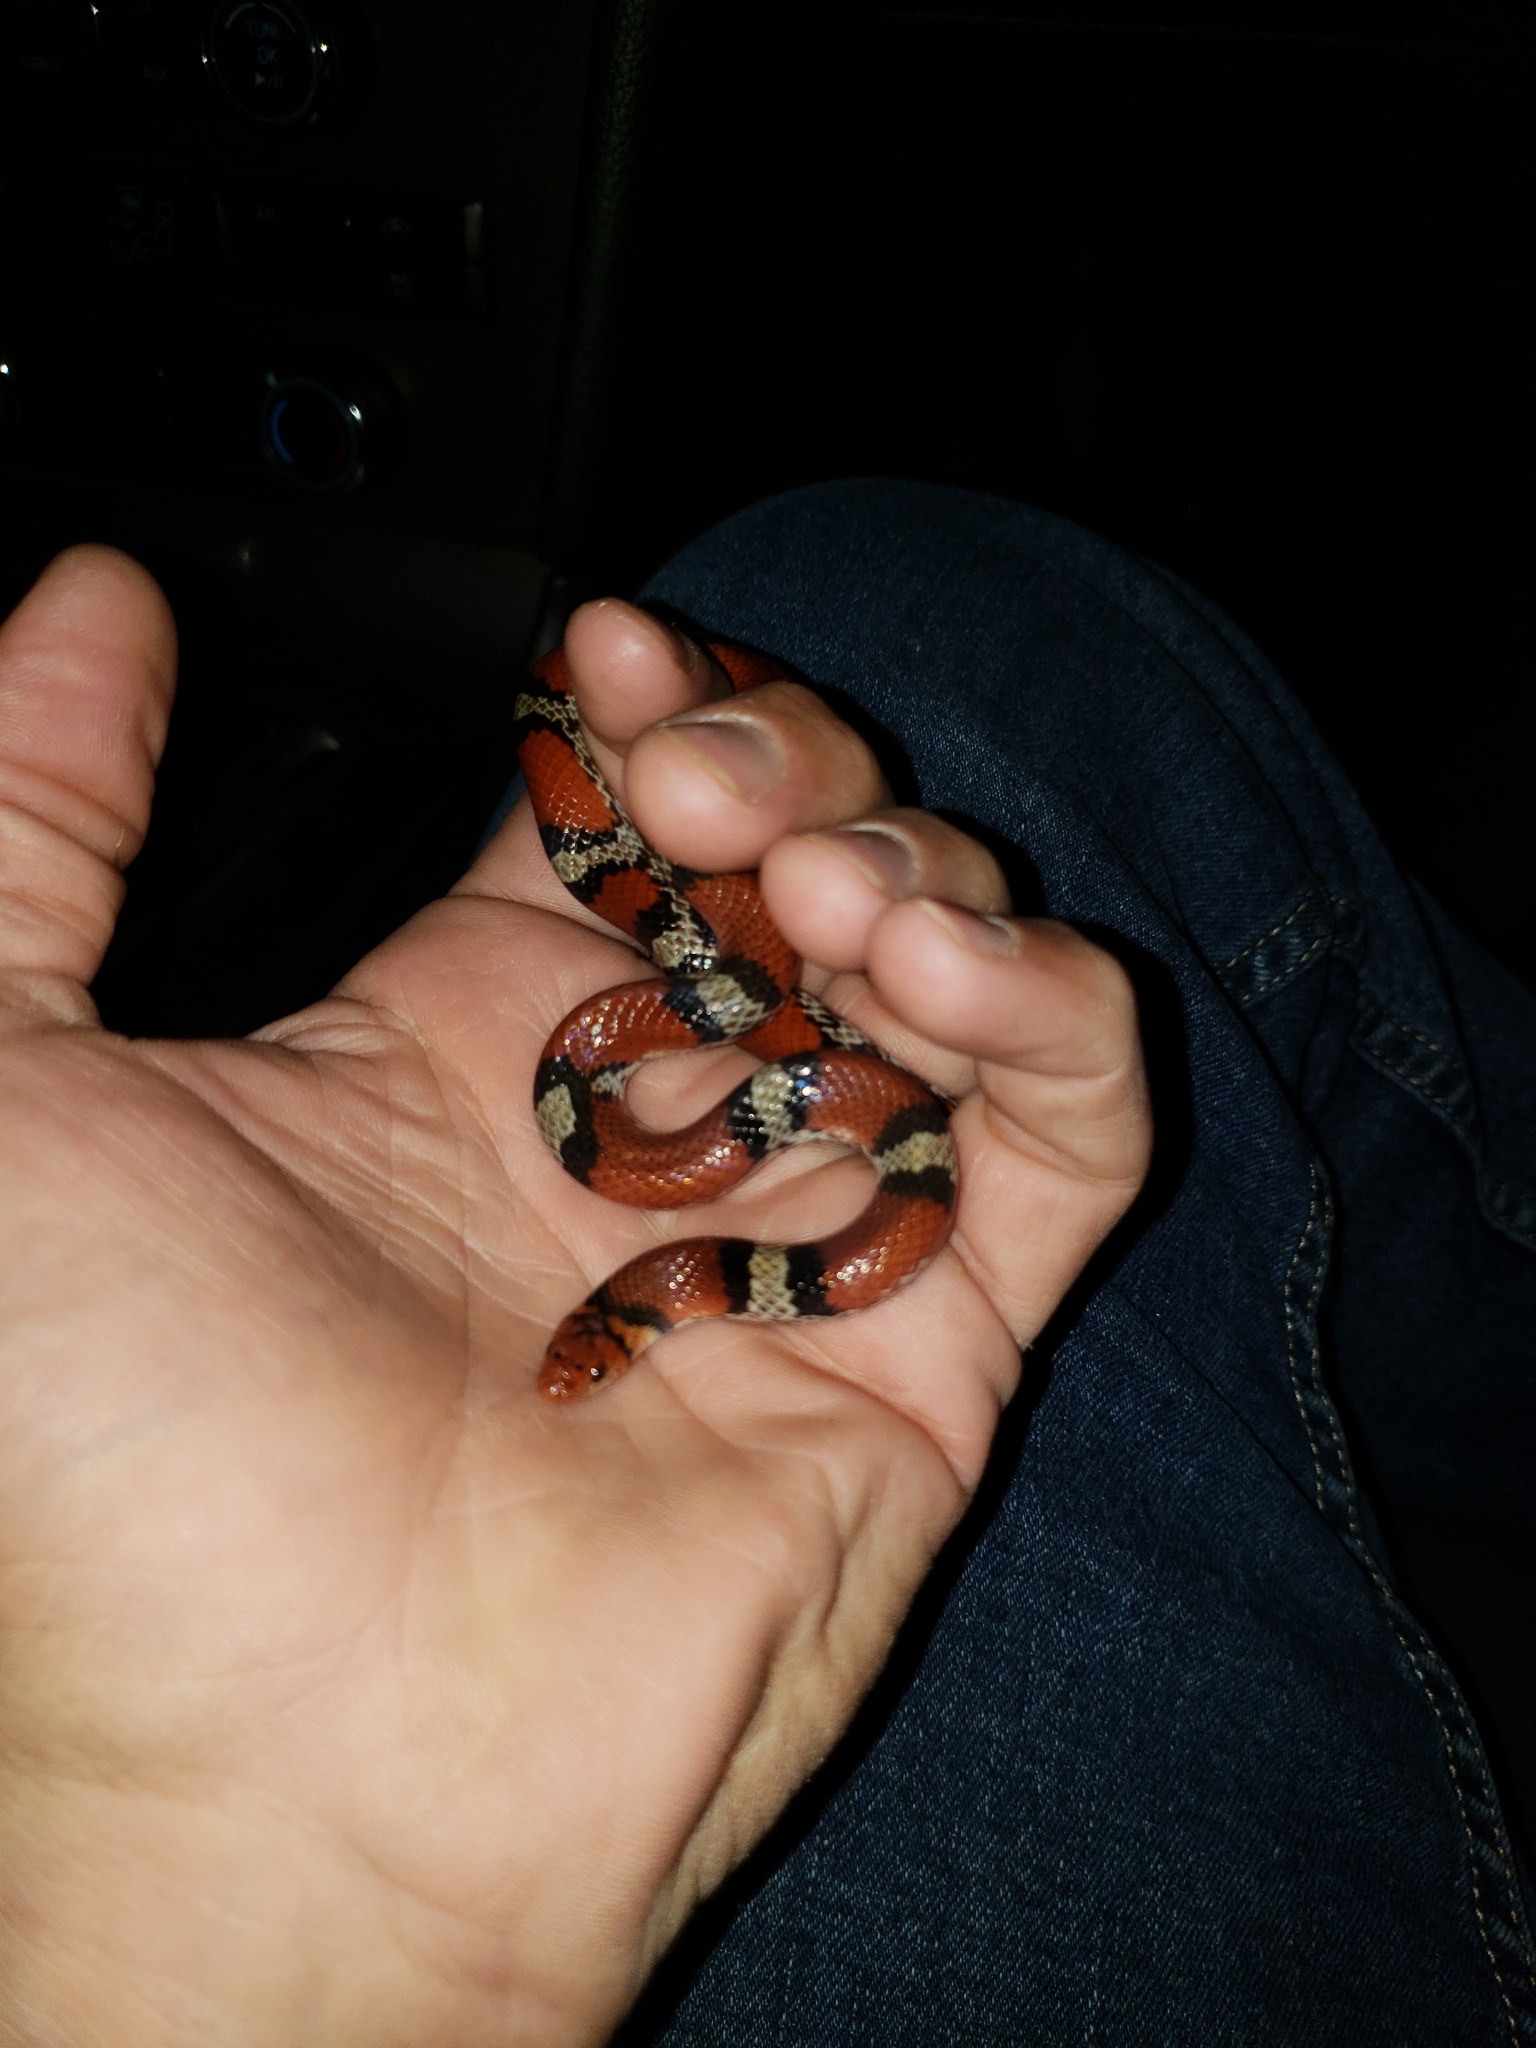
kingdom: Animalia
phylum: Chordata
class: Squamata
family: Colubridae
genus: Cemophora
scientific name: Cemophora coccinea
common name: Scarlet snake
